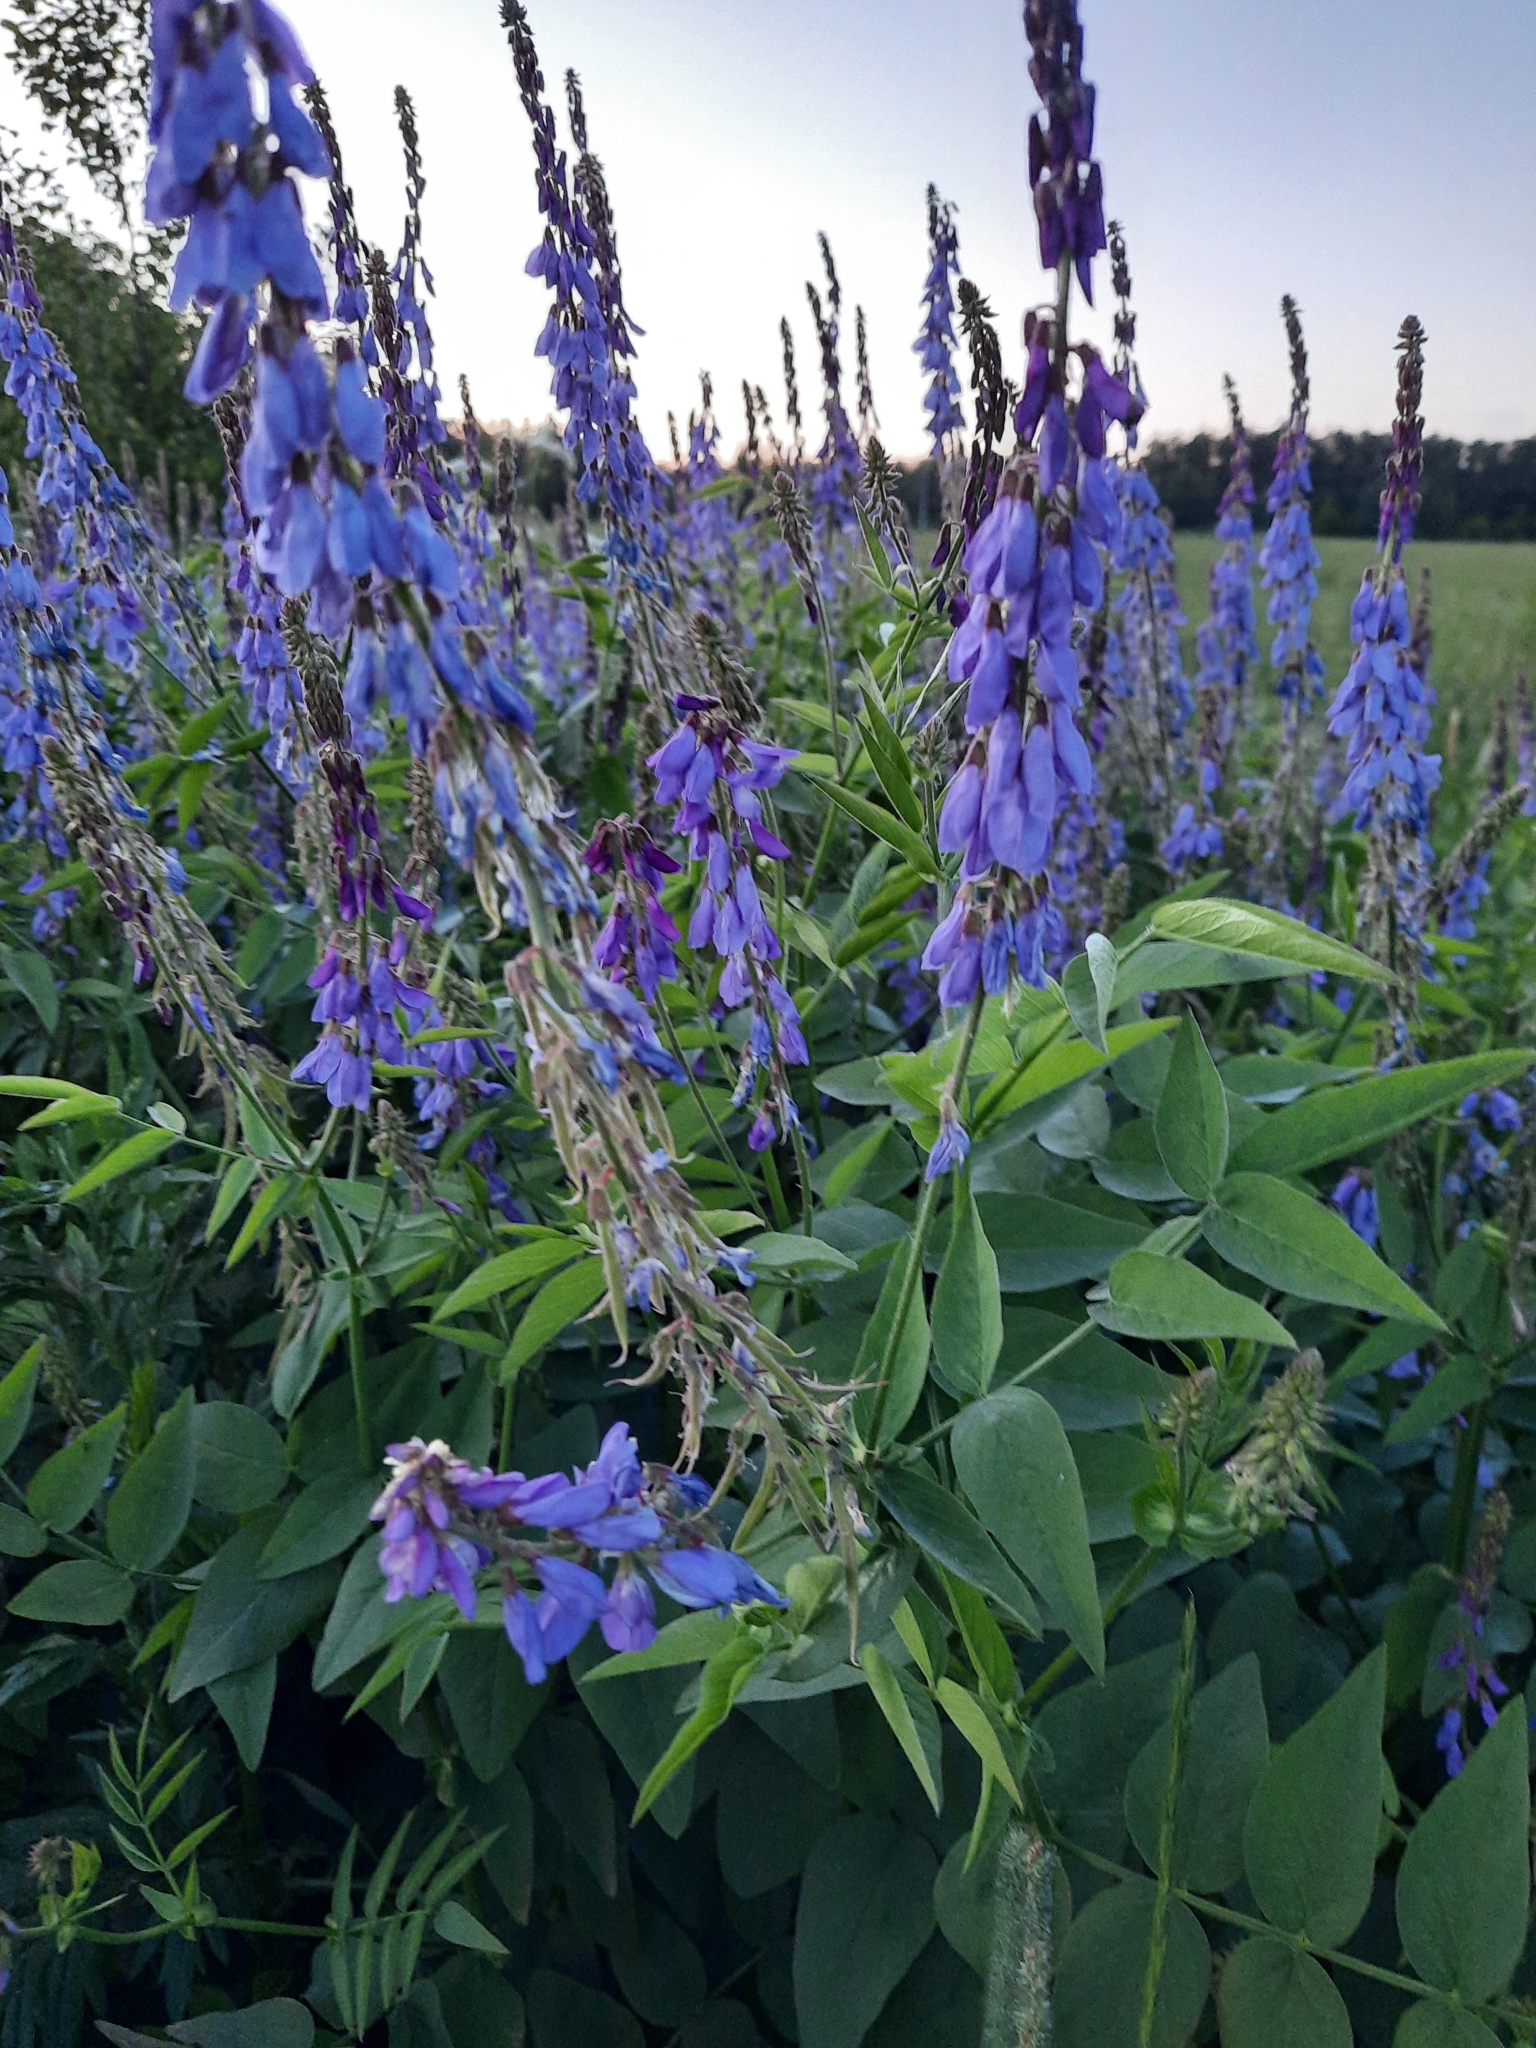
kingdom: Plantae
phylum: Tracheophyta
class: Magnoliopsida
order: Fabales
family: Fabaceae
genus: Galega
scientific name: Galega orientalis
